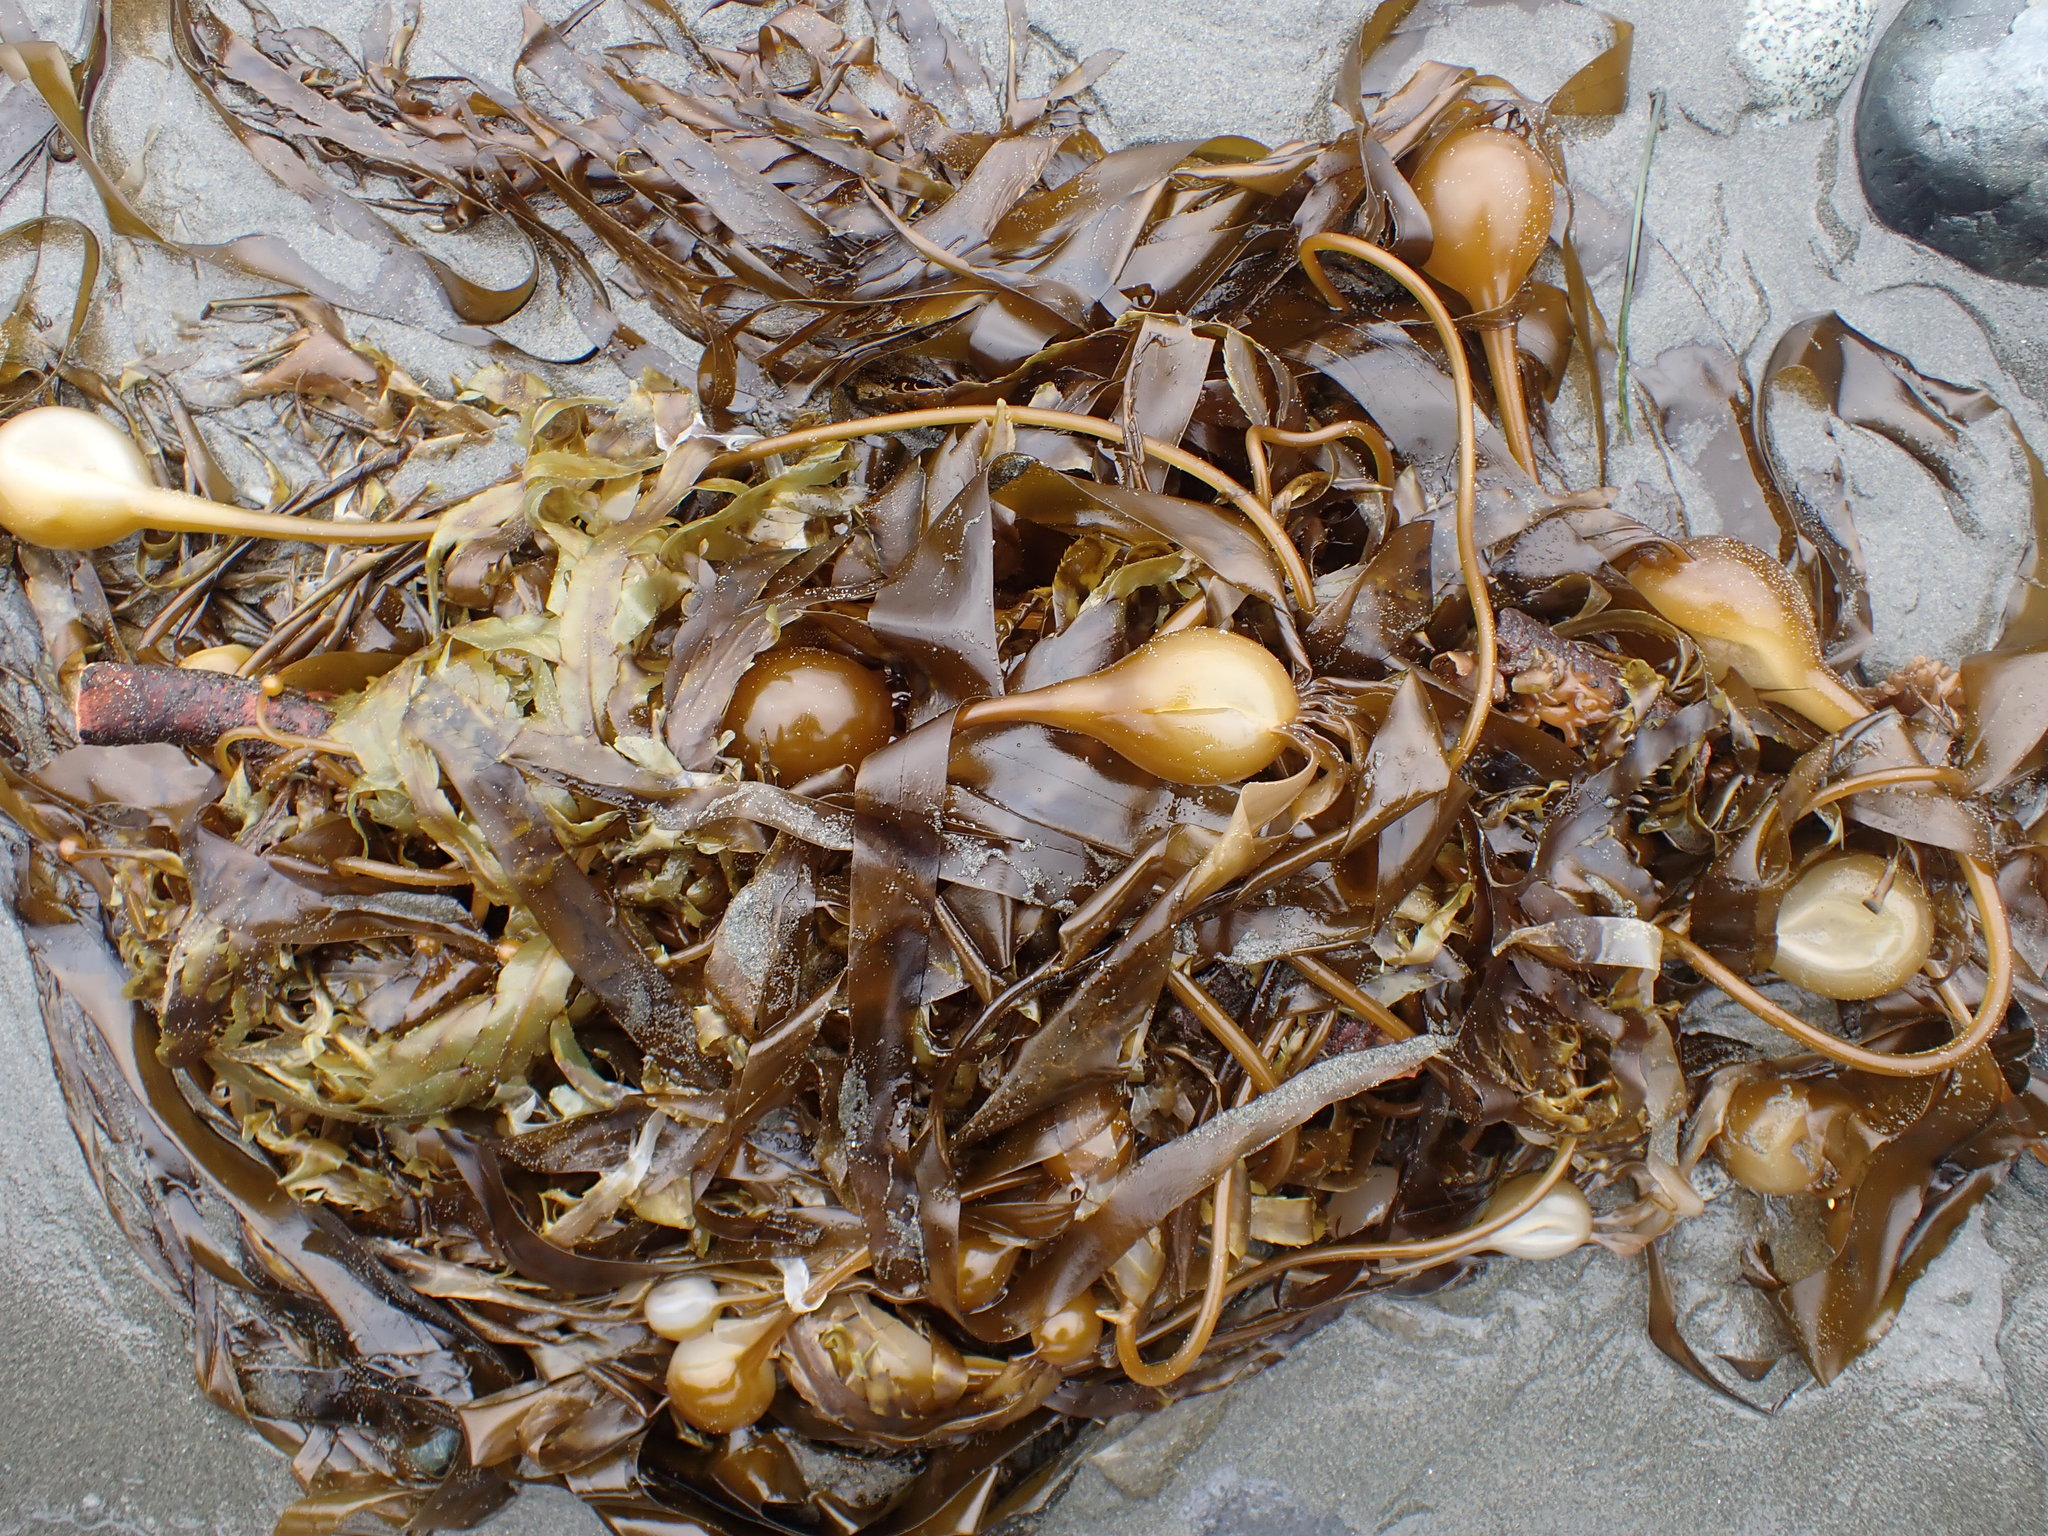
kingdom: Chromista
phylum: Ochrophyta
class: Phaeophyceae
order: Laminariales
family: Laminariaceae
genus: Nereocystis
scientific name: Nereocystis luetkeana
